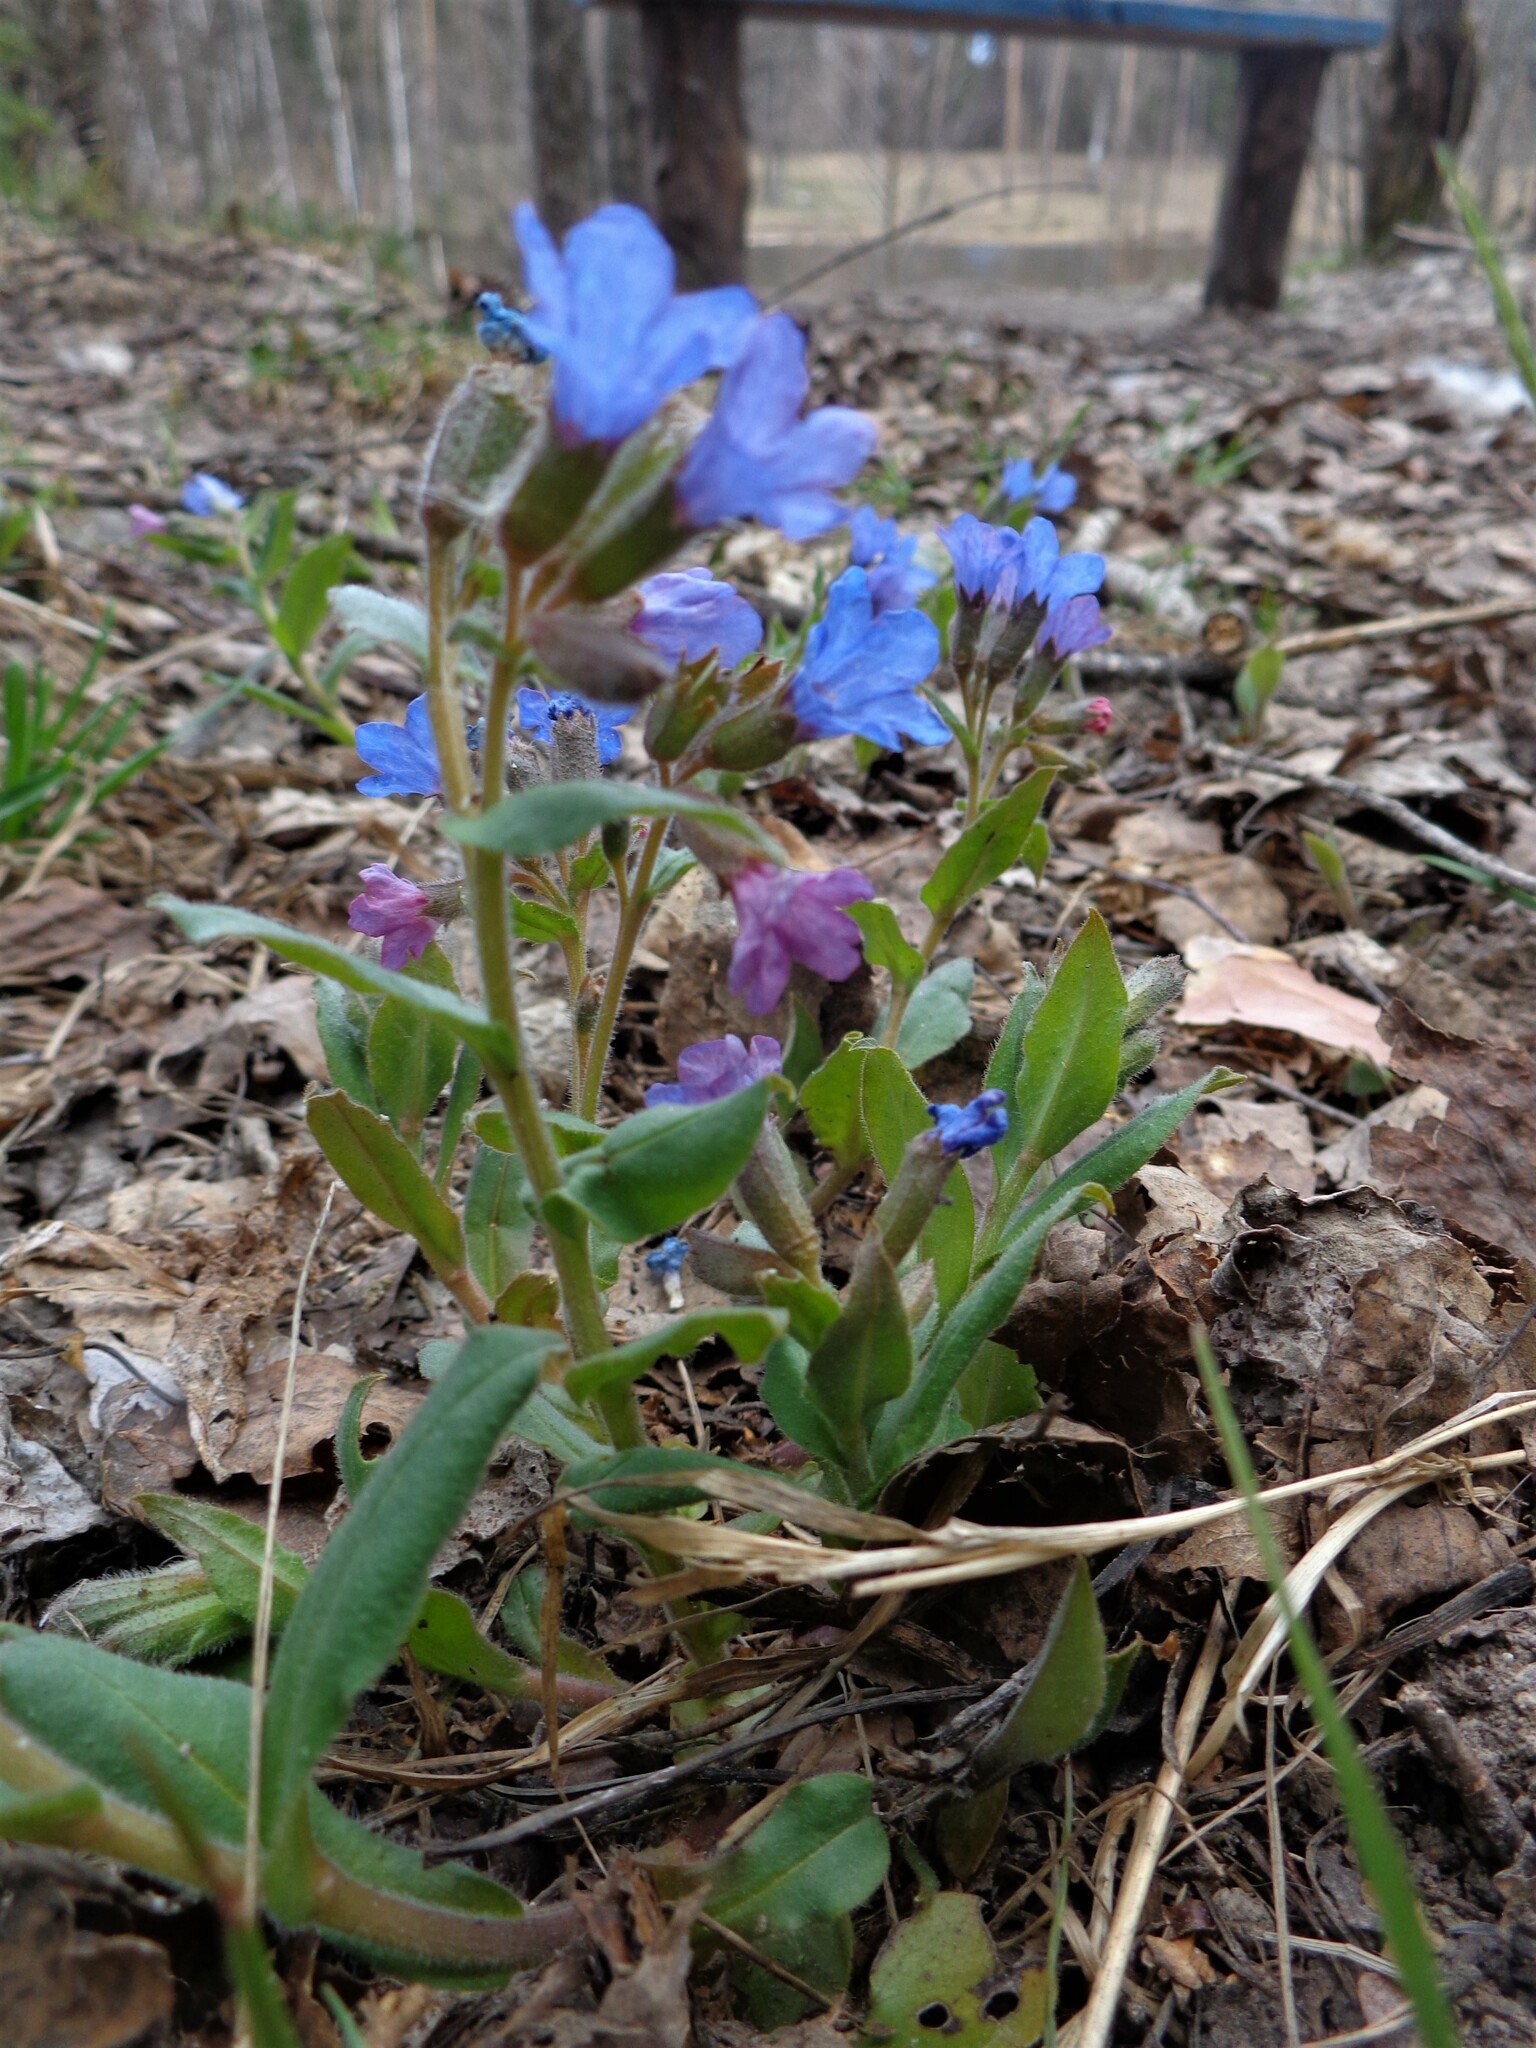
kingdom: Plantae
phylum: Tracheophyta
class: Magnoliopsida
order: Boraginales
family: Boraginaceae
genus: Pulmonaria
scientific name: Pulmonaria obscura
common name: Suffolk lungwort
